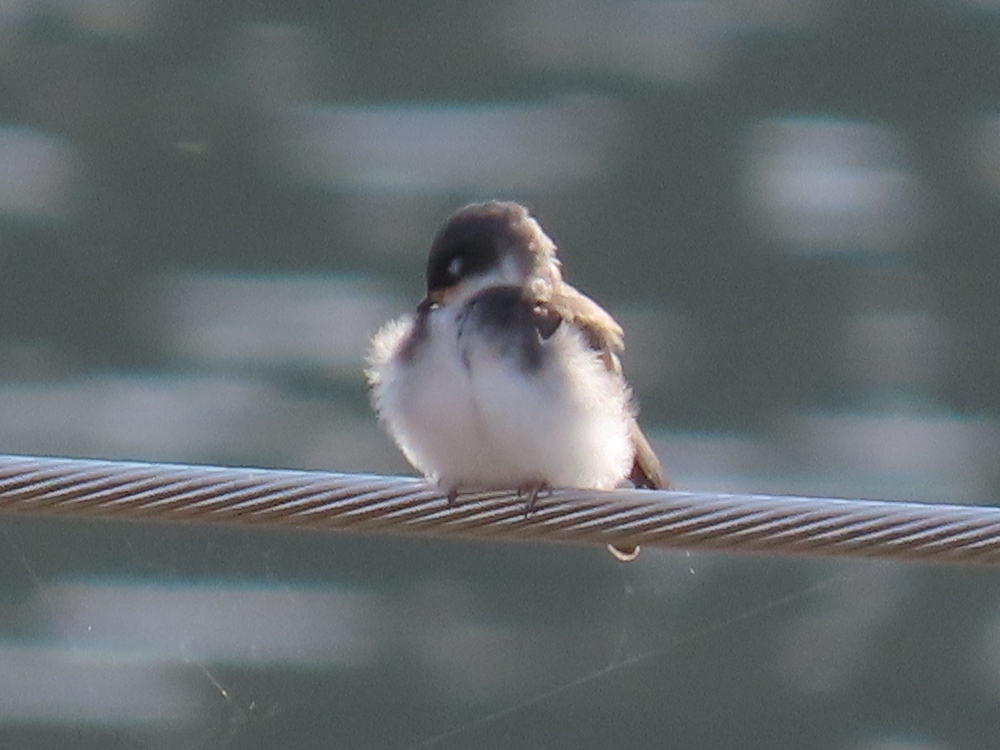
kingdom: Animalia
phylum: Chordata
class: Aves
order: Passeriformes
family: Hirundinidae
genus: Tachycineta
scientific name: Tachycineta bicolor
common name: Tree swallow
